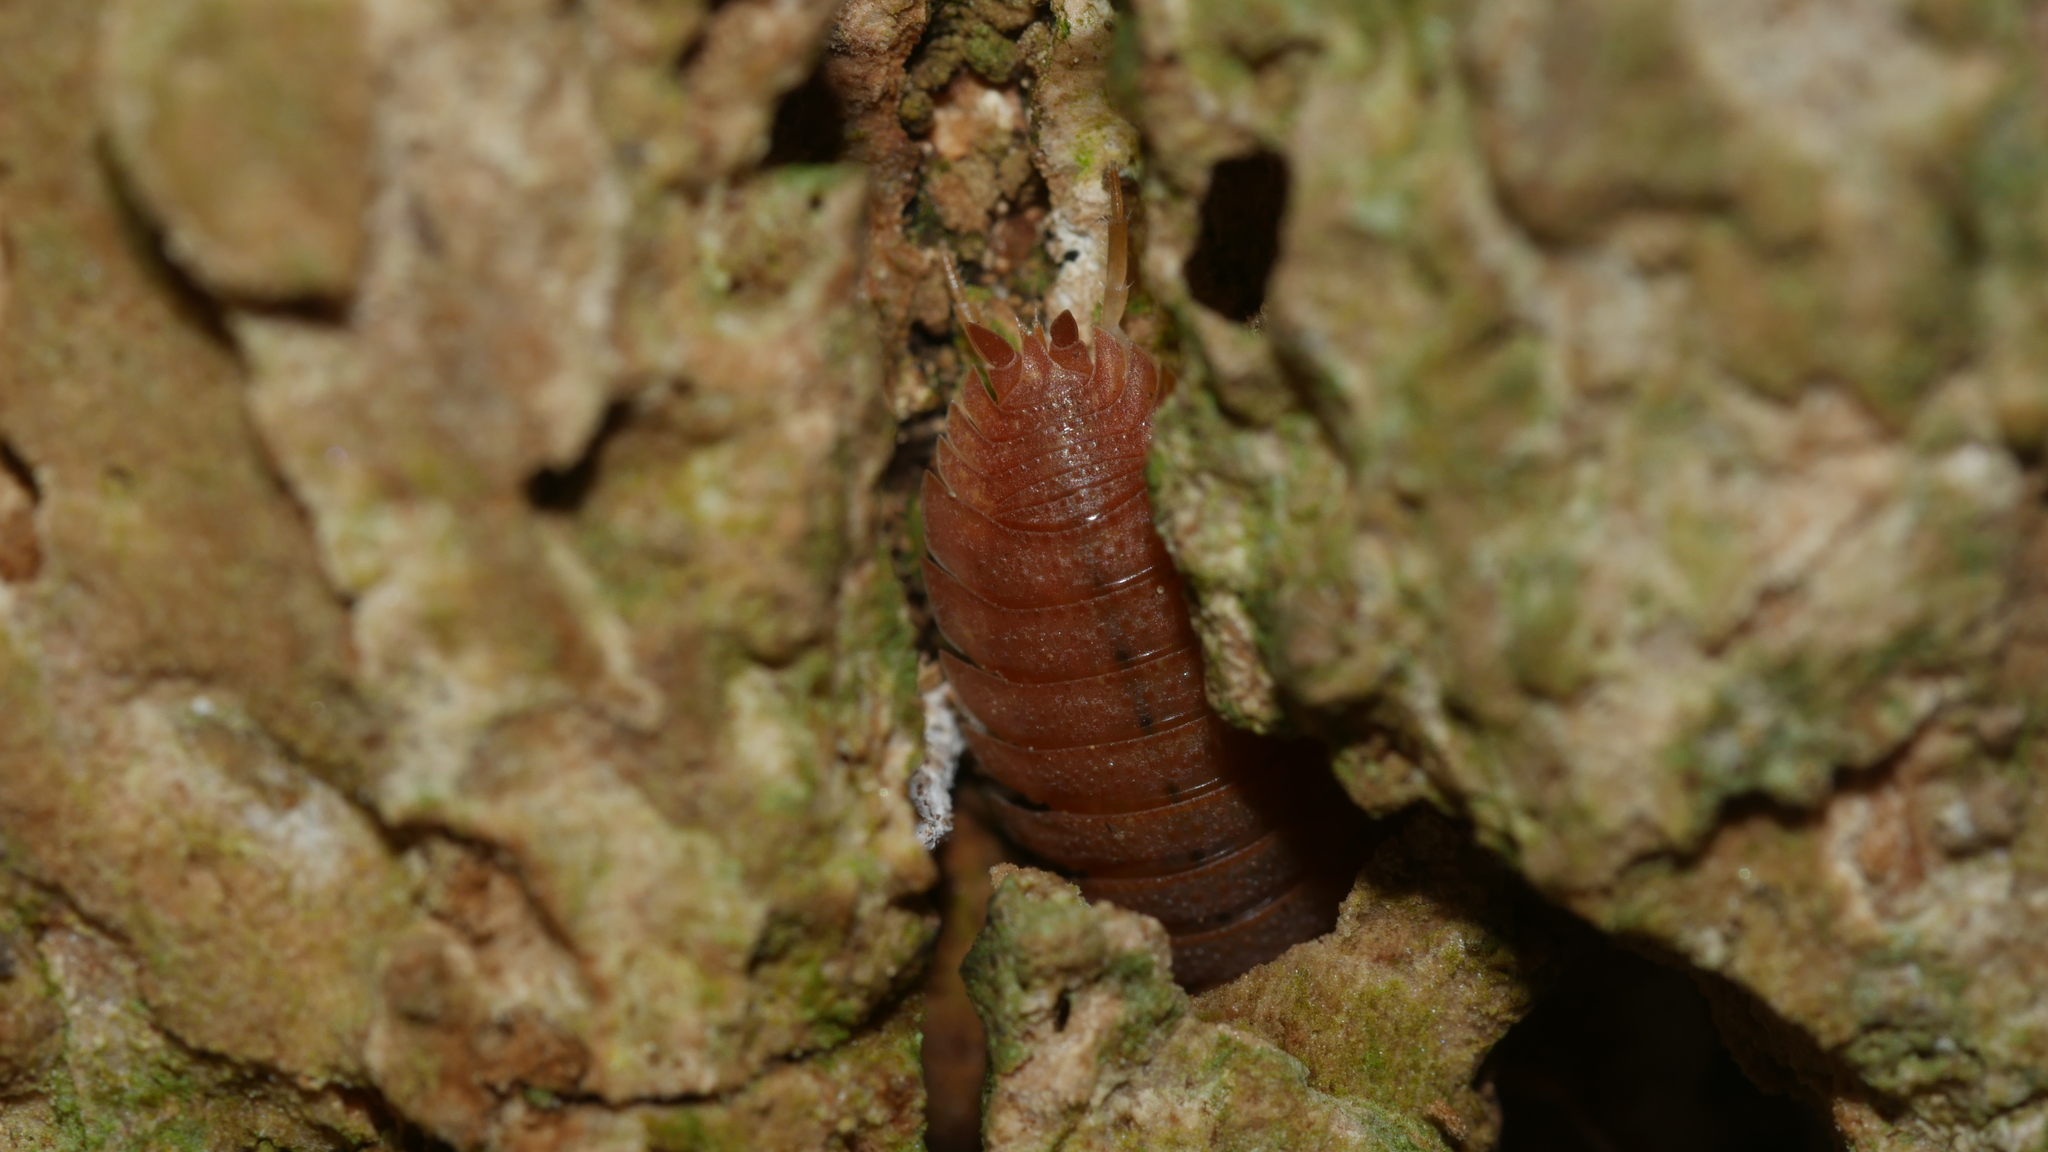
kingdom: Animalia
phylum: Arthropoda
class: Malacostraca
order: Isopoda
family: Porcellionidae
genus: Porcellio
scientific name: Porcellio scaber
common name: Common rough woodlouse
